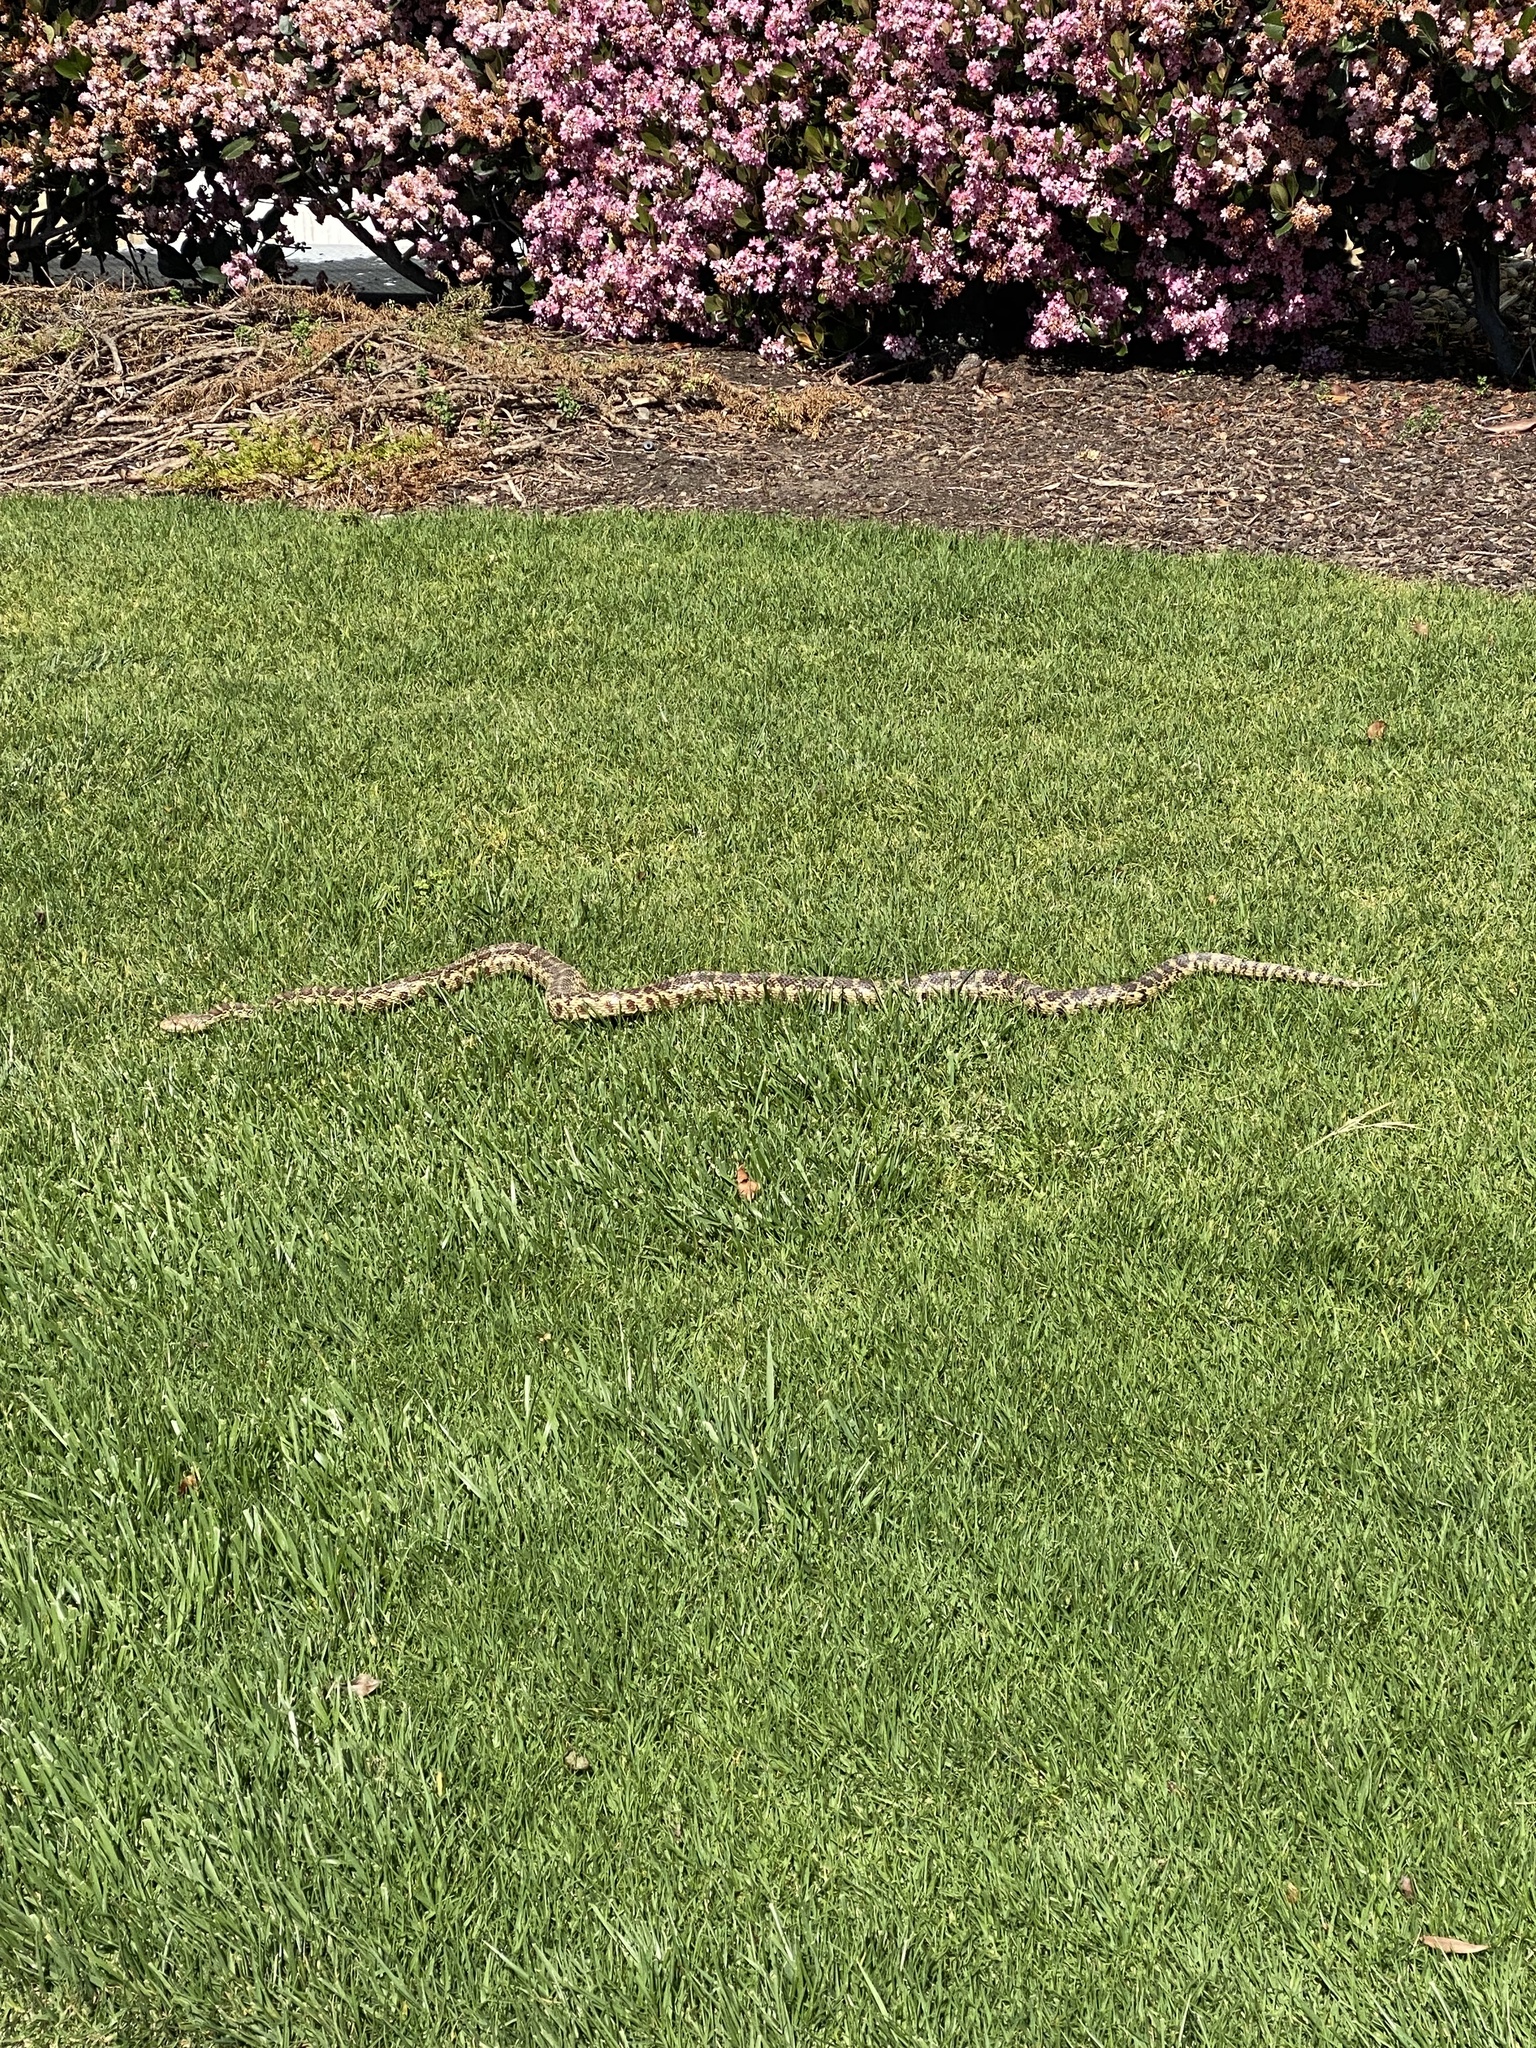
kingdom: Animalia
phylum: Chordata
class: Squamata
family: Colubridae
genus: Pituophis
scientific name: Pituophis catenifer
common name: Gopher snake
